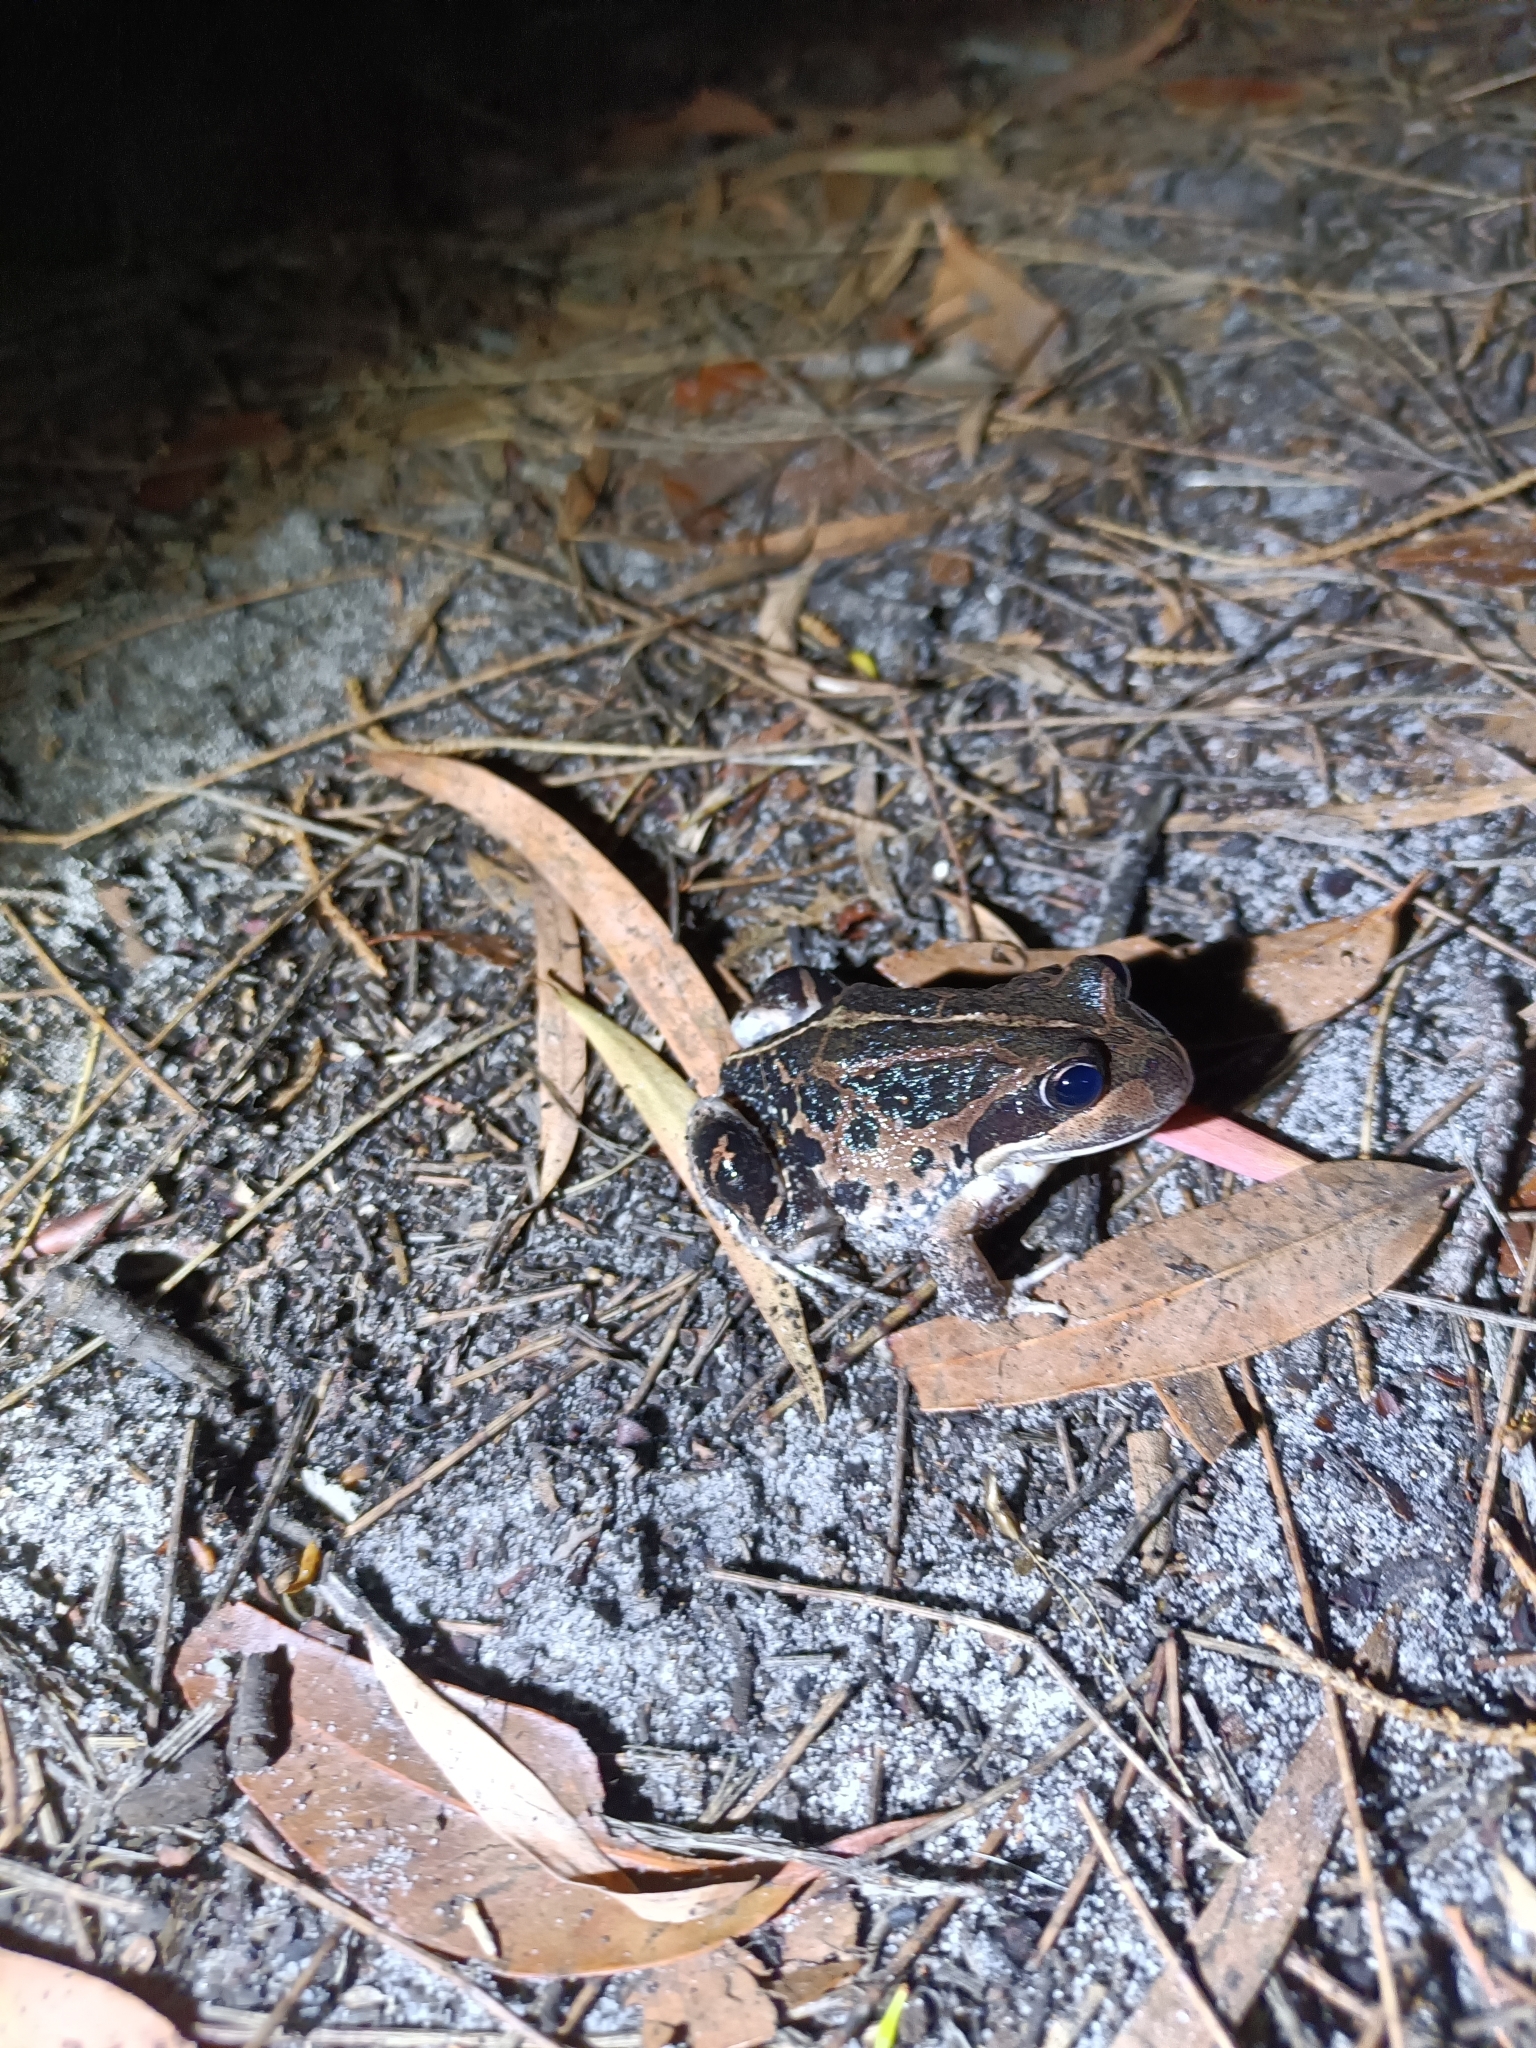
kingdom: Animalia
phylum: Chordata
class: Amphibia
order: Anura
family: Limnodynastidae
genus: Limnodynastes
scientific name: Limnodynastes dorsalis
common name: Banjo frog
